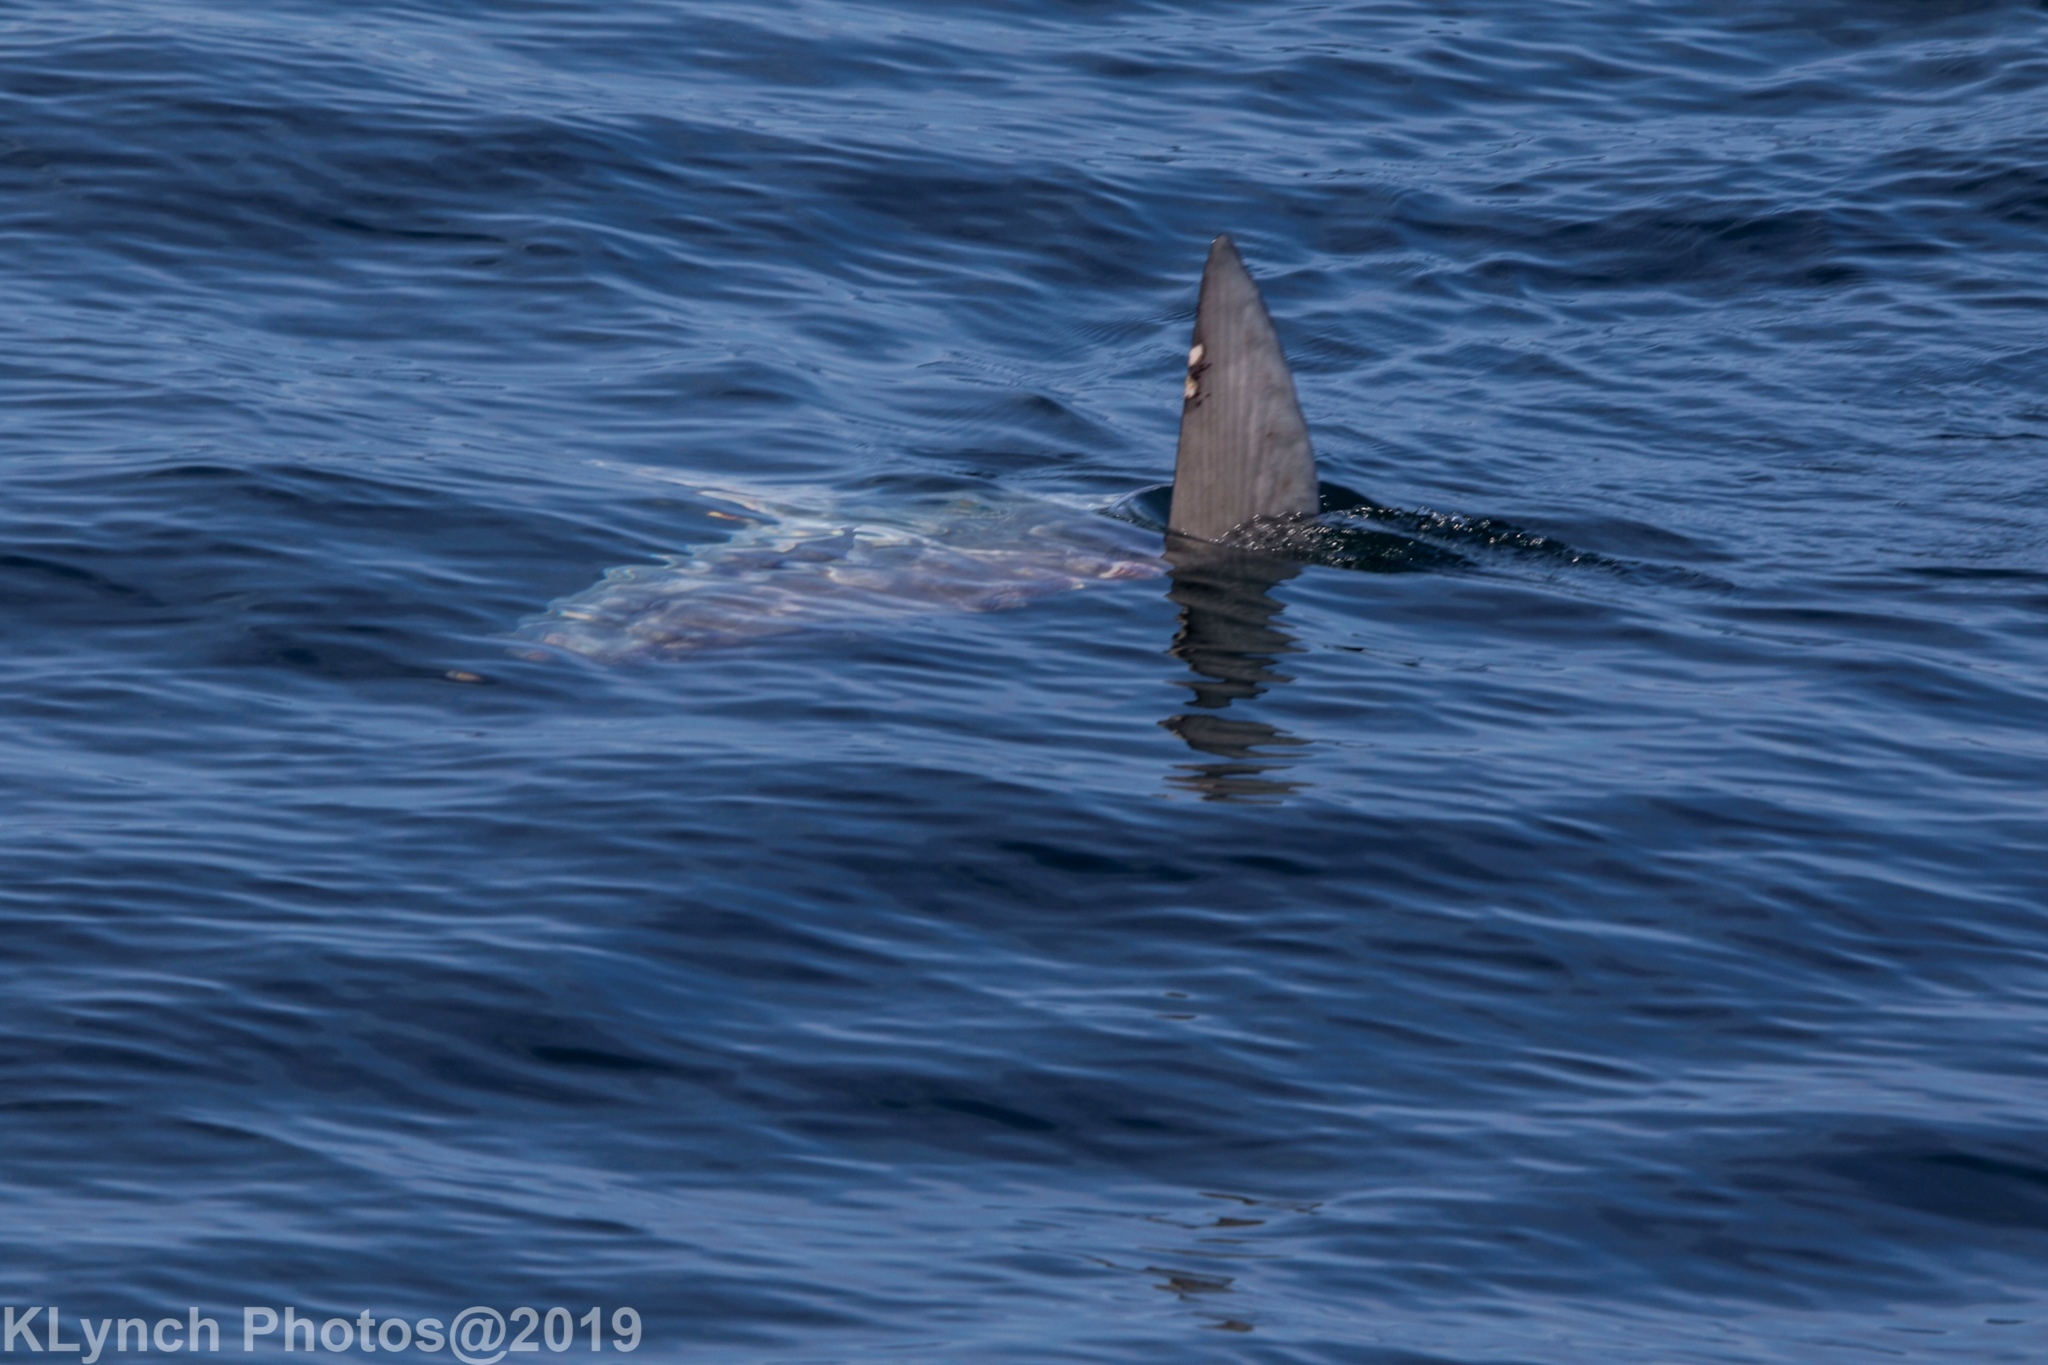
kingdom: Animalia
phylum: Chordata
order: Tetraodontiformes
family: Molidae
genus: Mola
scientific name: Mola mola
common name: Ocean sunfish
